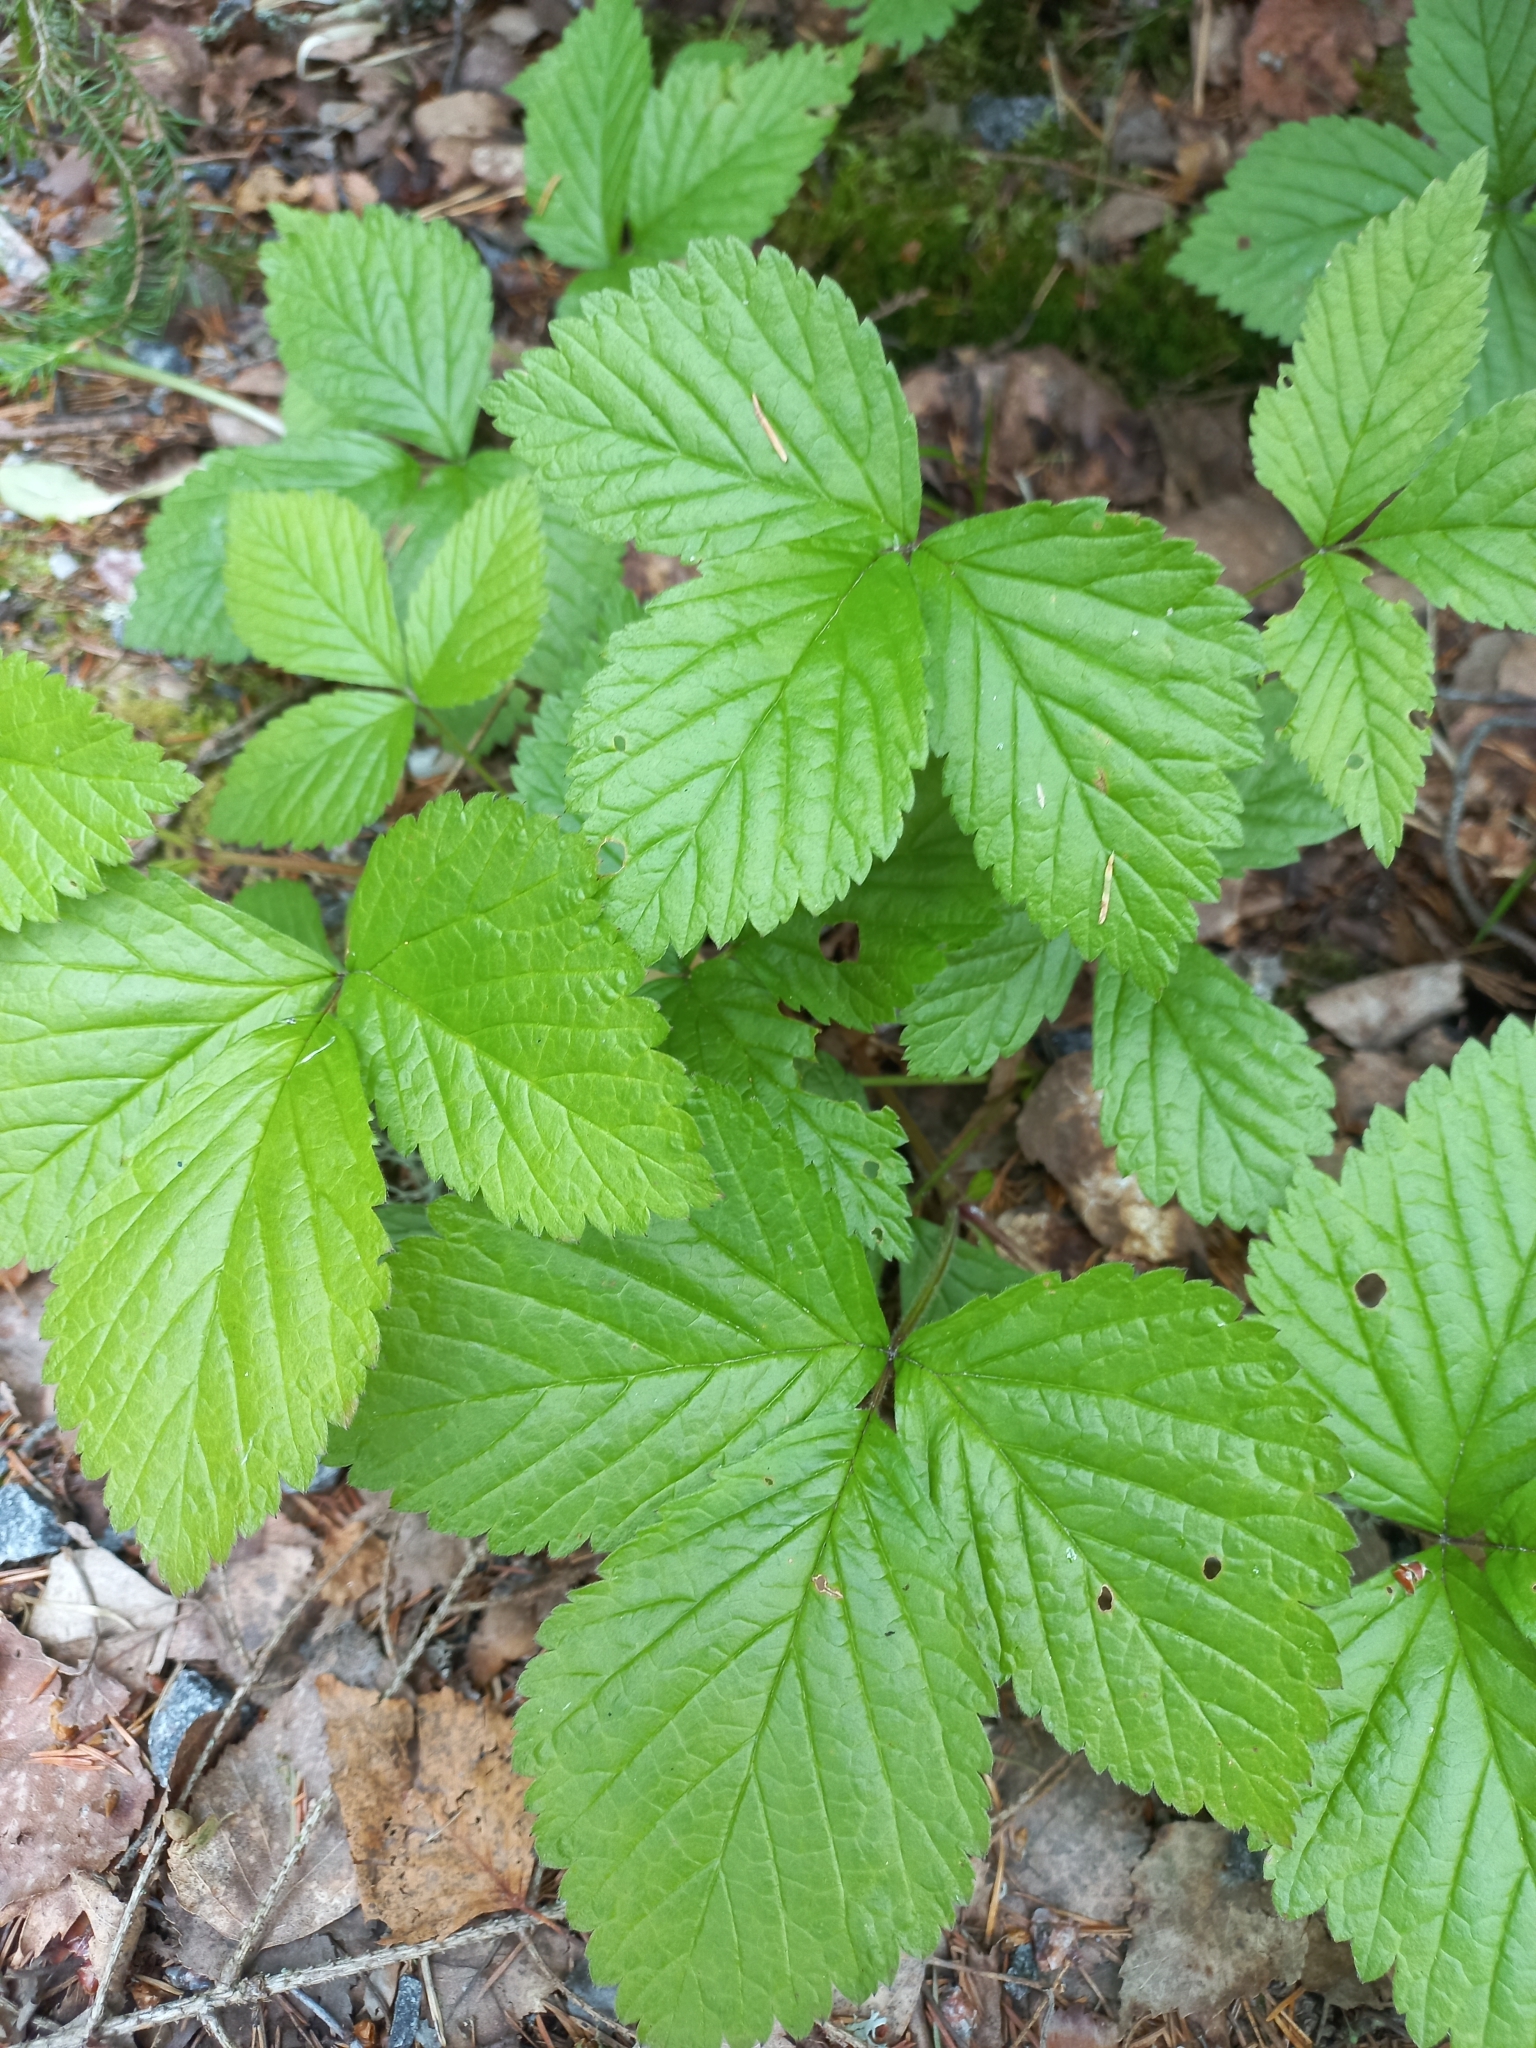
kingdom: Plantae
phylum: Tracheophyta
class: Magnoliopsida
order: Rosales
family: Rosaceae
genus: Rubus
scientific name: Rubus saxatilis
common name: Stone bramble
